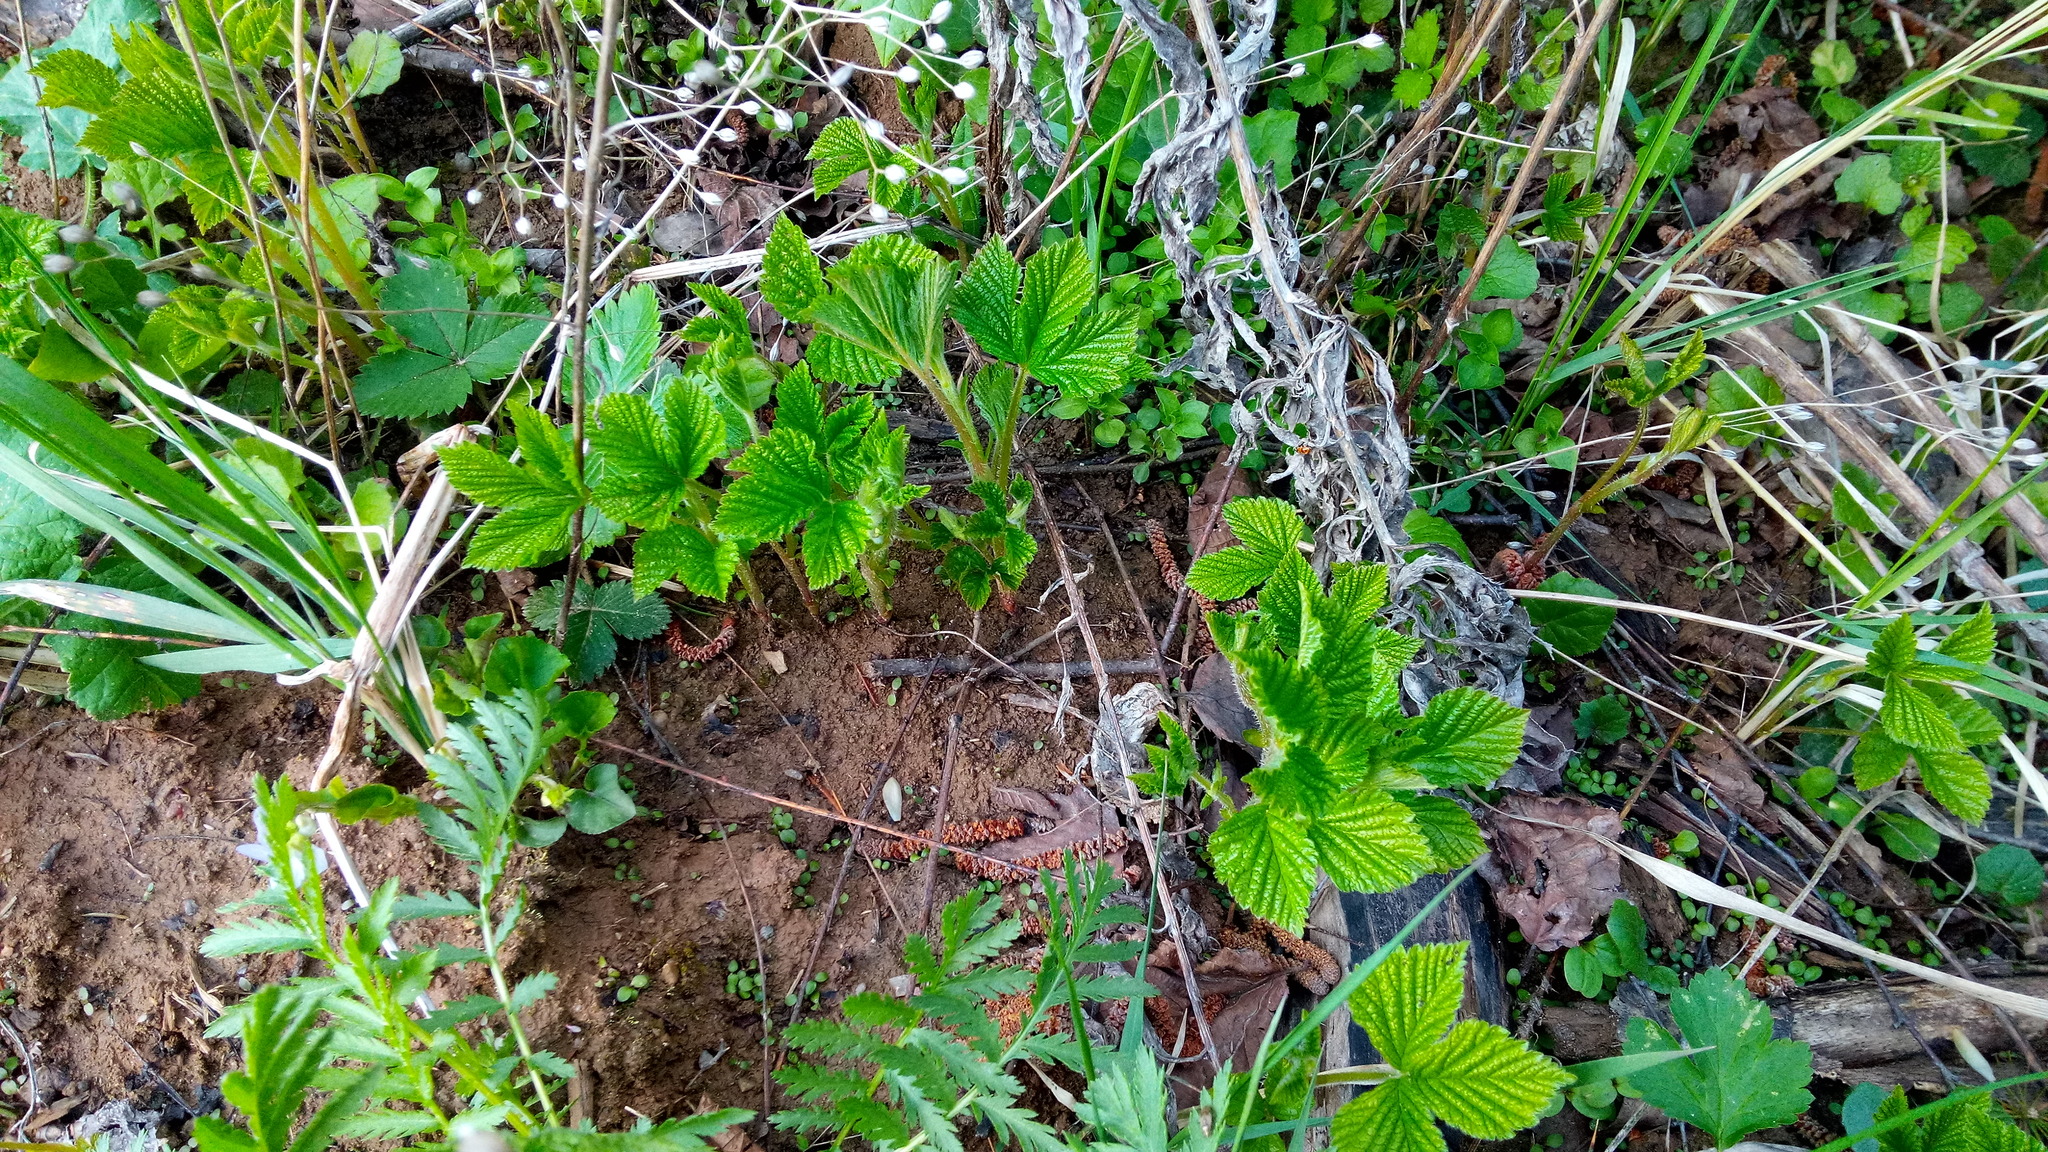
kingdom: Plantae
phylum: Tracheophyta
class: Magnoliopsida
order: Rosales
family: Rosaceae
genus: Rubus
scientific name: Rubus saxatilis
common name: Stone bramble
